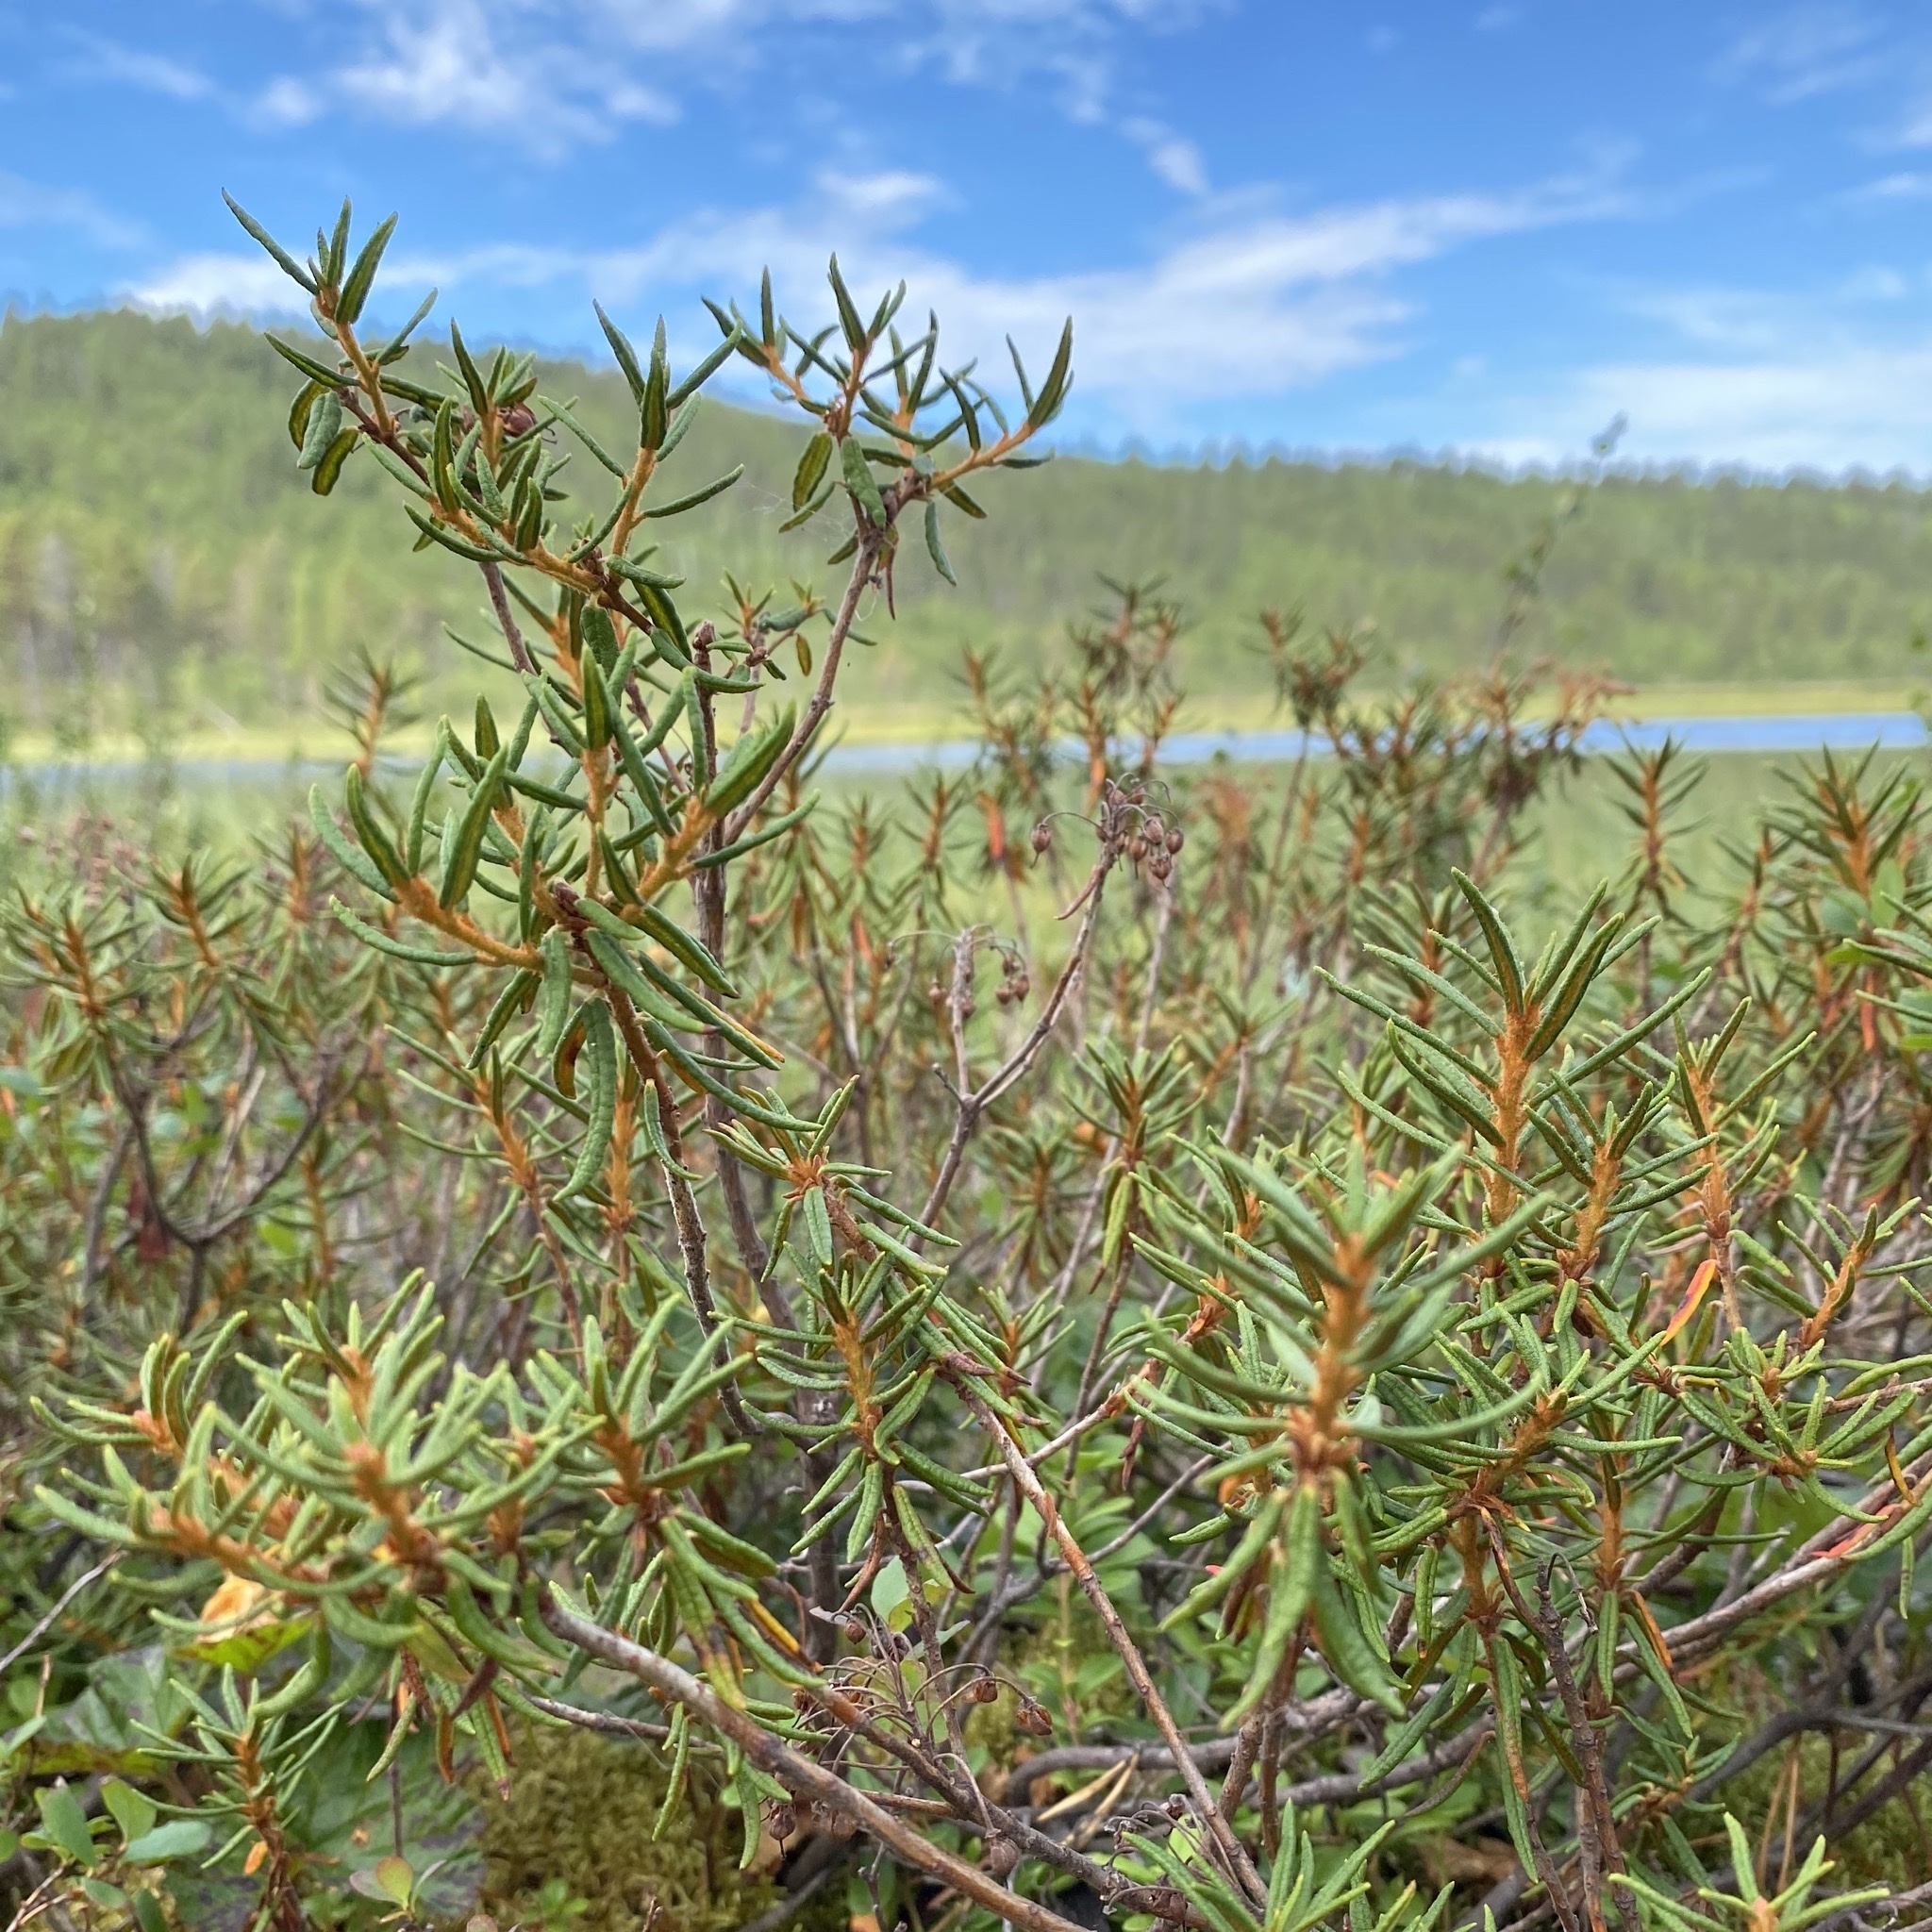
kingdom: Plantae
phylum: Tracheophyta
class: Magnoliopsida
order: Ericales
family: Ericaceae
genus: Rhododendron
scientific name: Rhododendron tomentosum
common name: Marsh labrador tea
